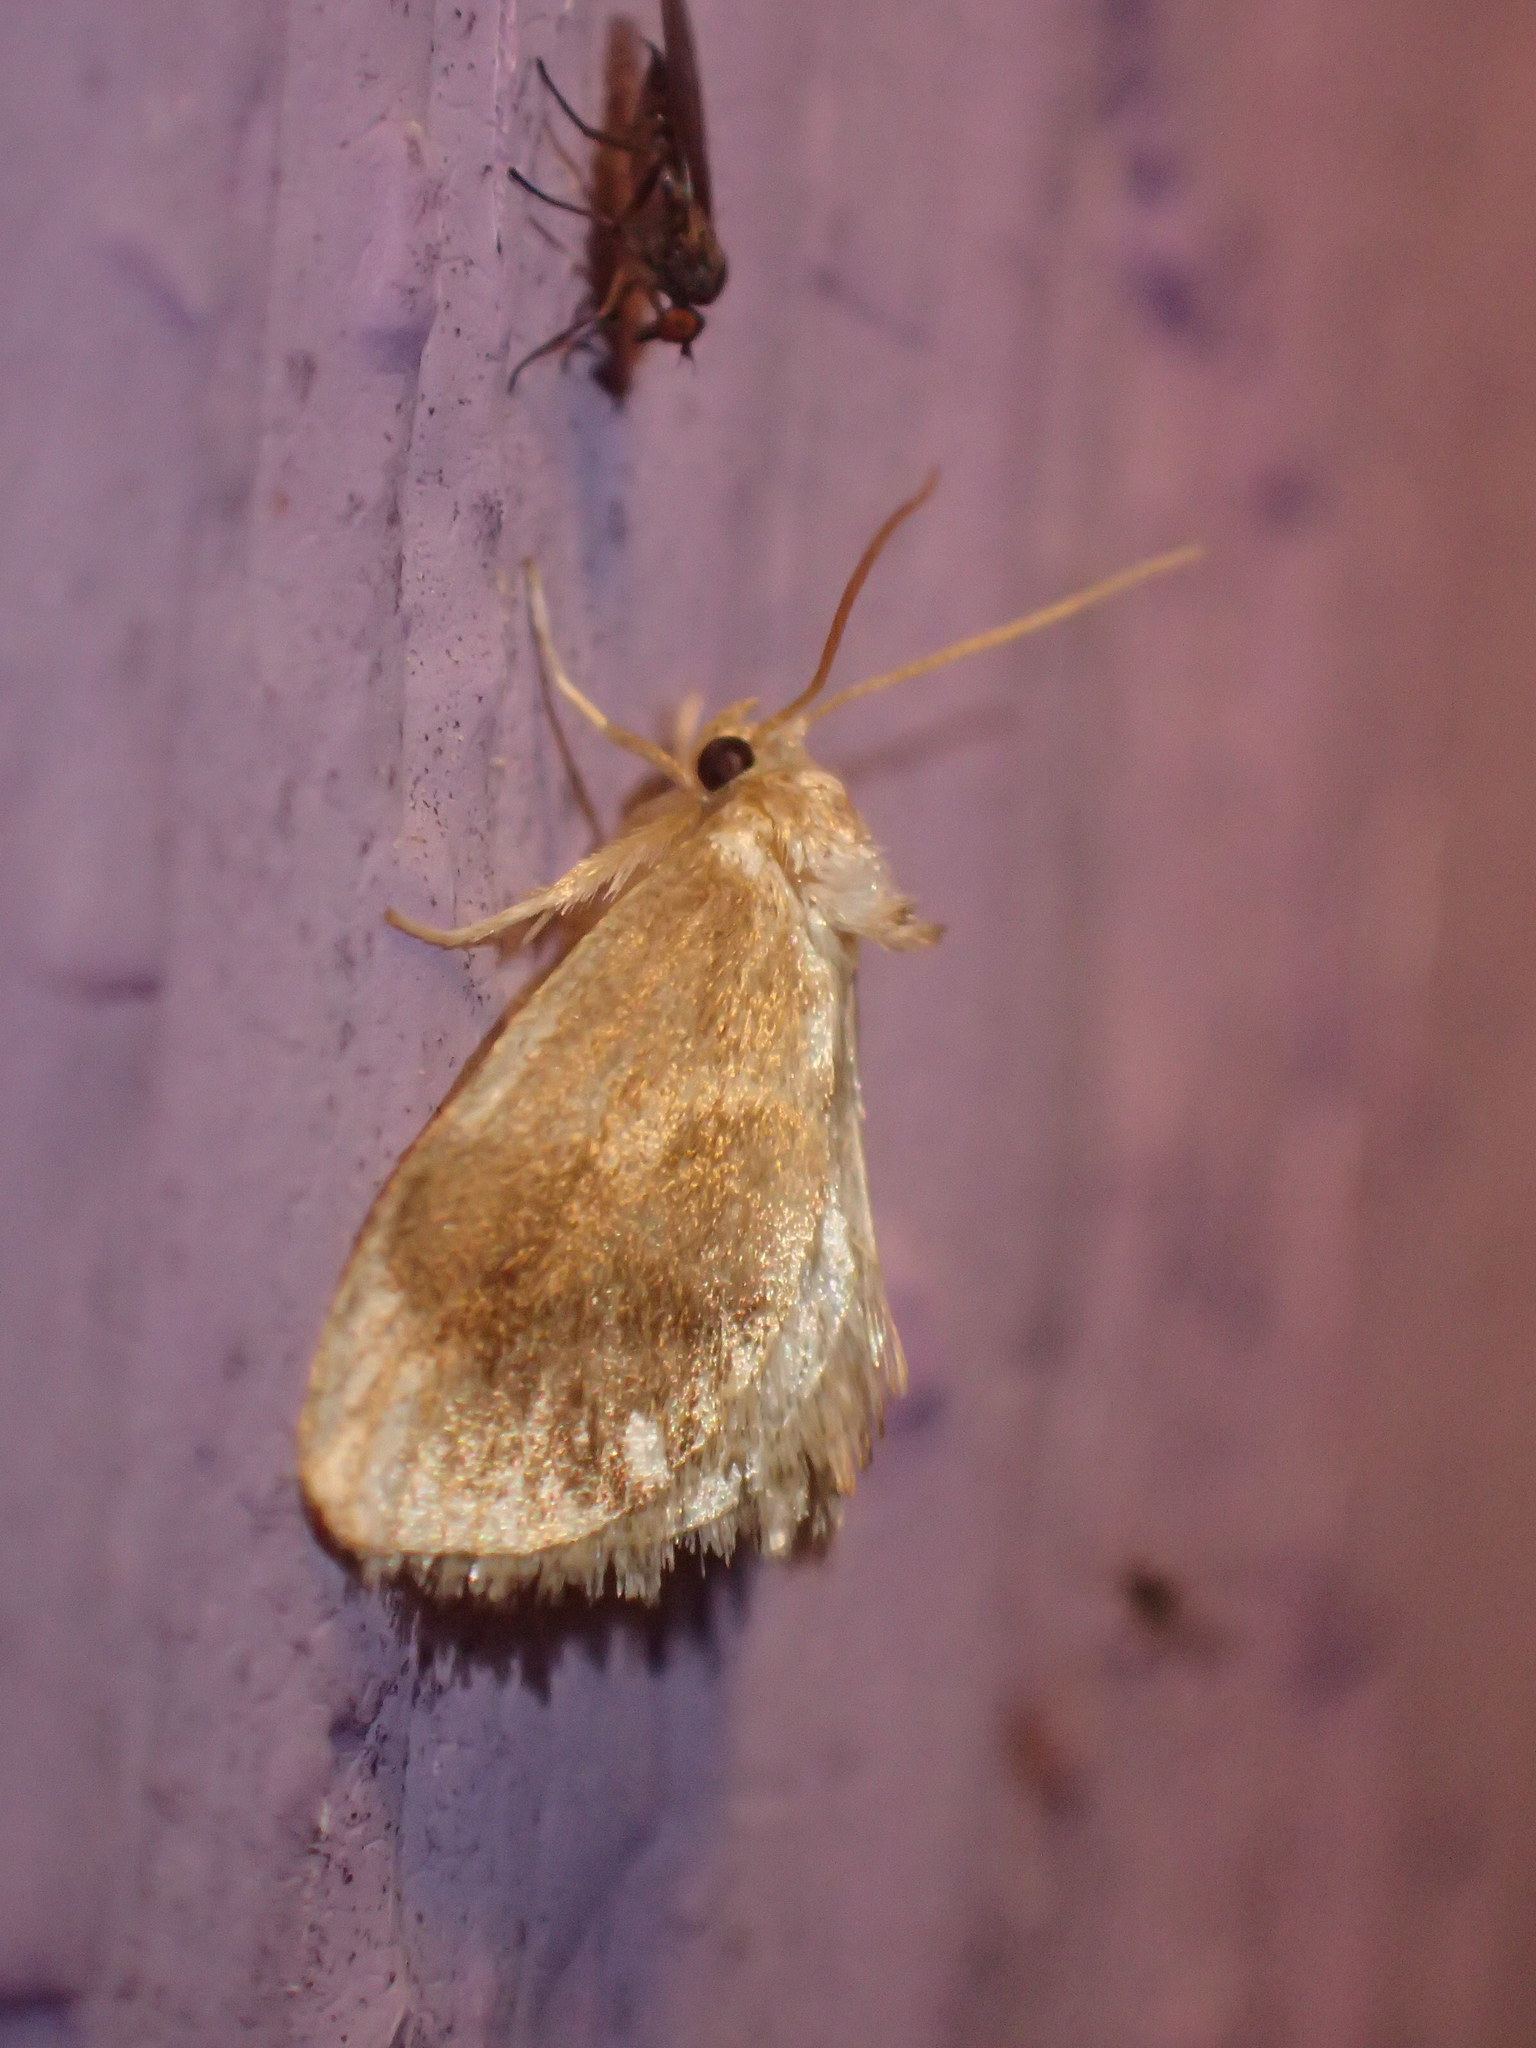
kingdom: Animalia
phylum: Arthropoda
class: Insecta
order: Lepidoptera
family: Limacodidae
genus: Packardia
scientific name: Packardia geminata
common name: Jeweled tailed slug moth
